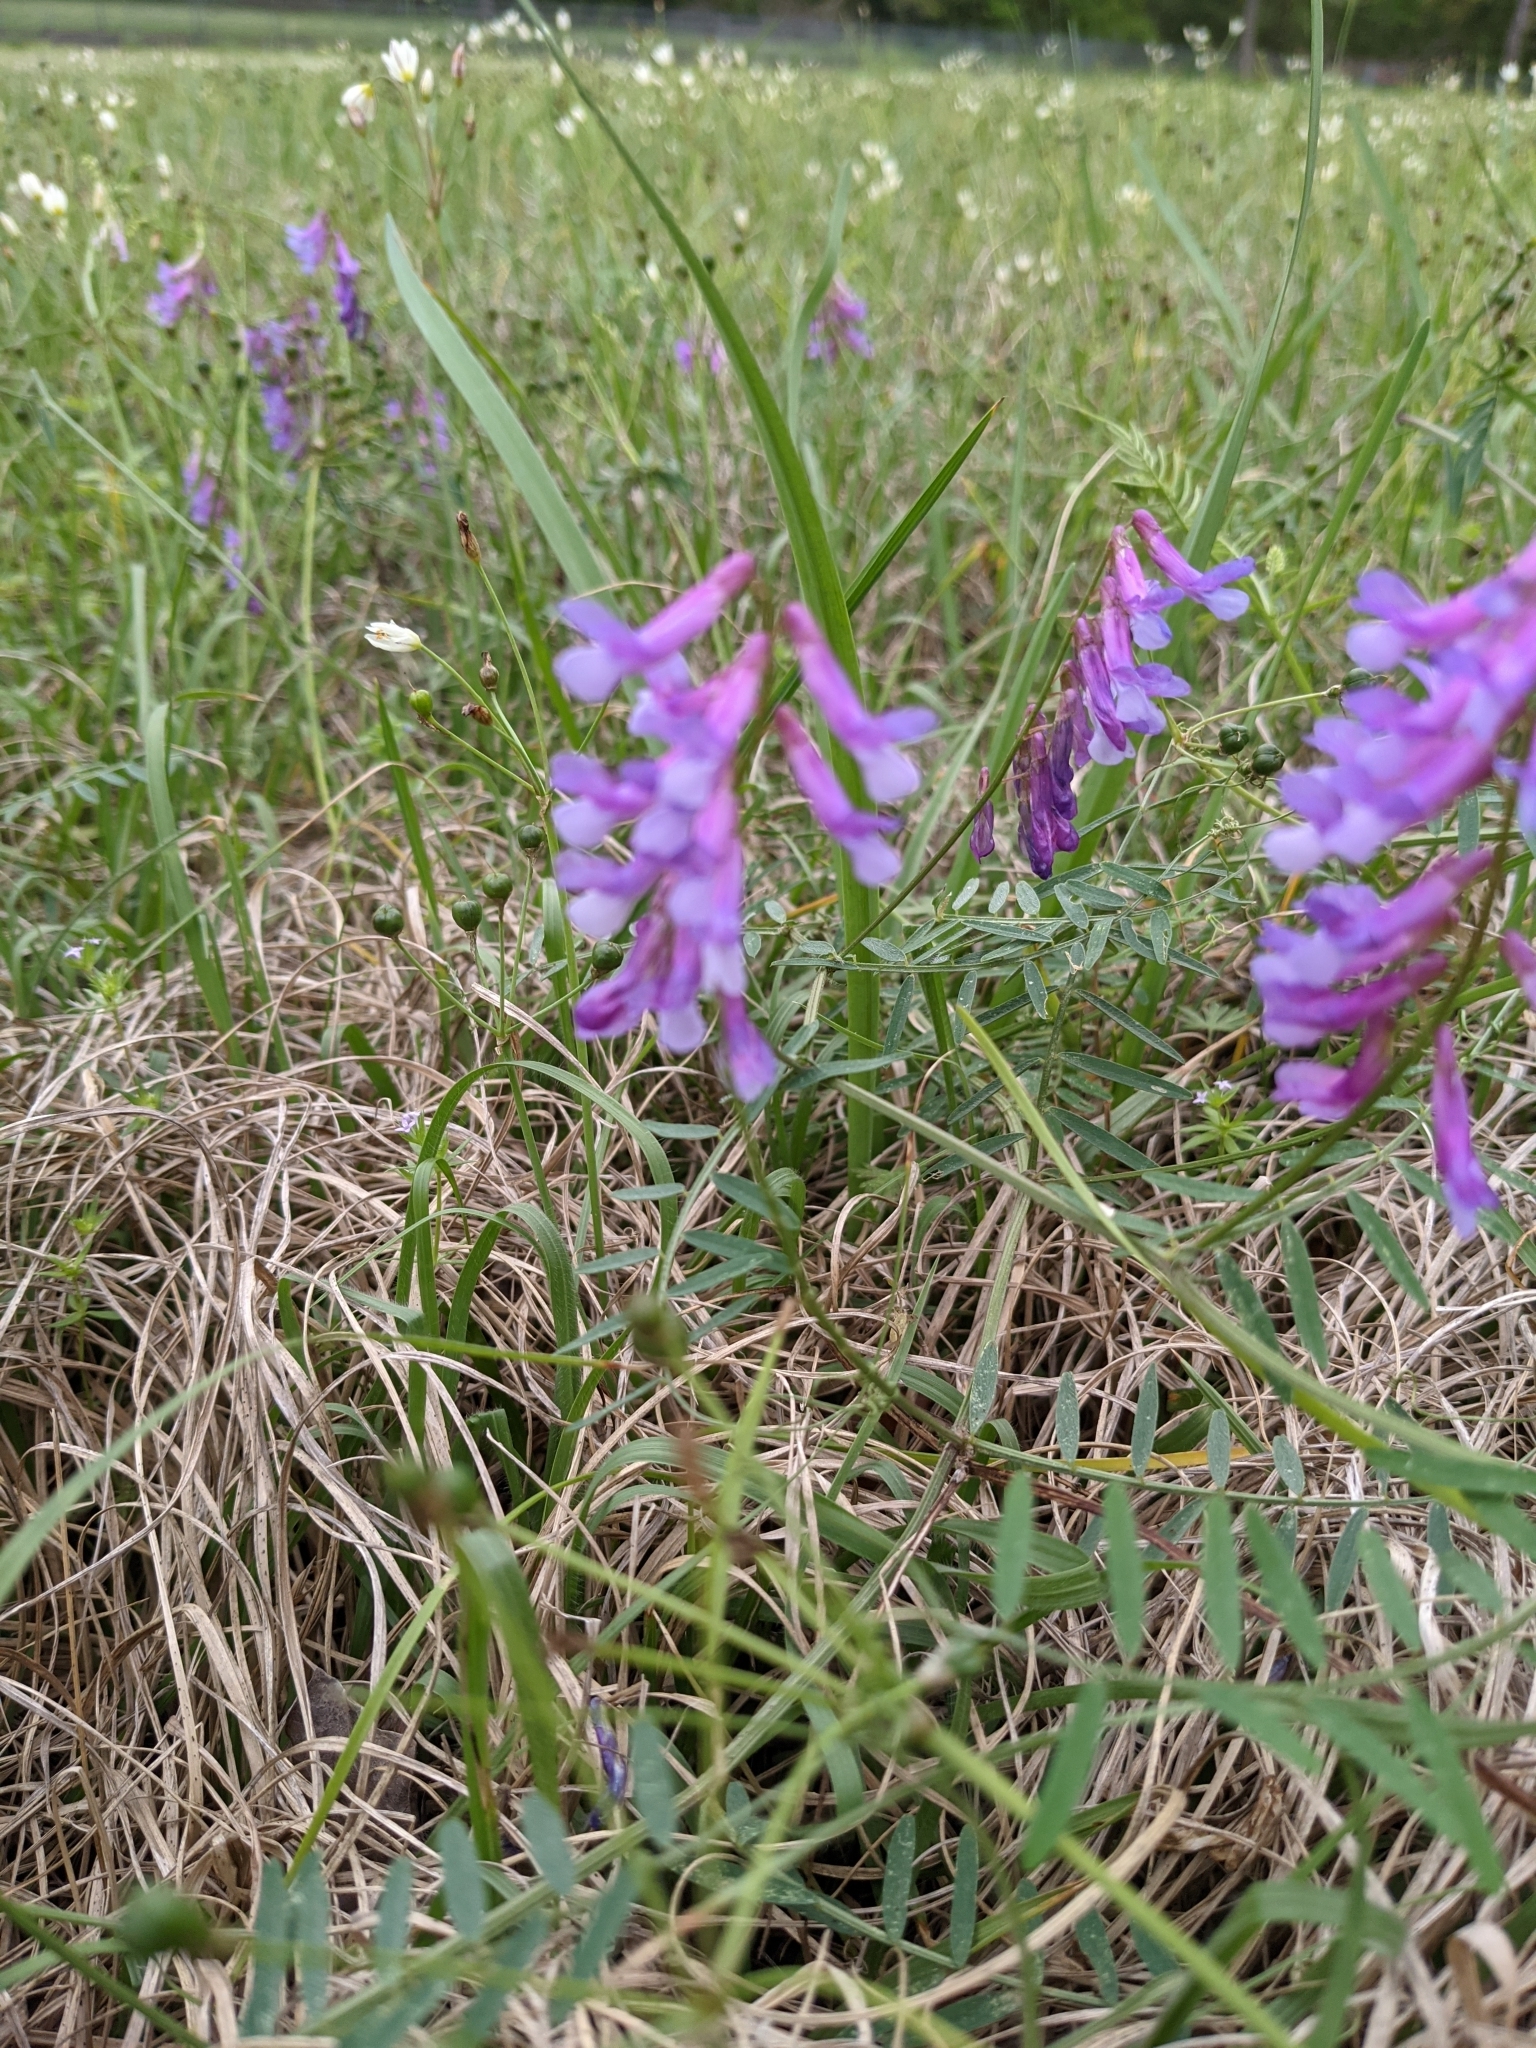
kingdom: Plantae
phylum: Tracheophyta
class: Magnoliopsida
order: Fabales
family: Fabaceae
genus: Vicia
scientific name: Vicia villosa
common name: Fodder vetch
